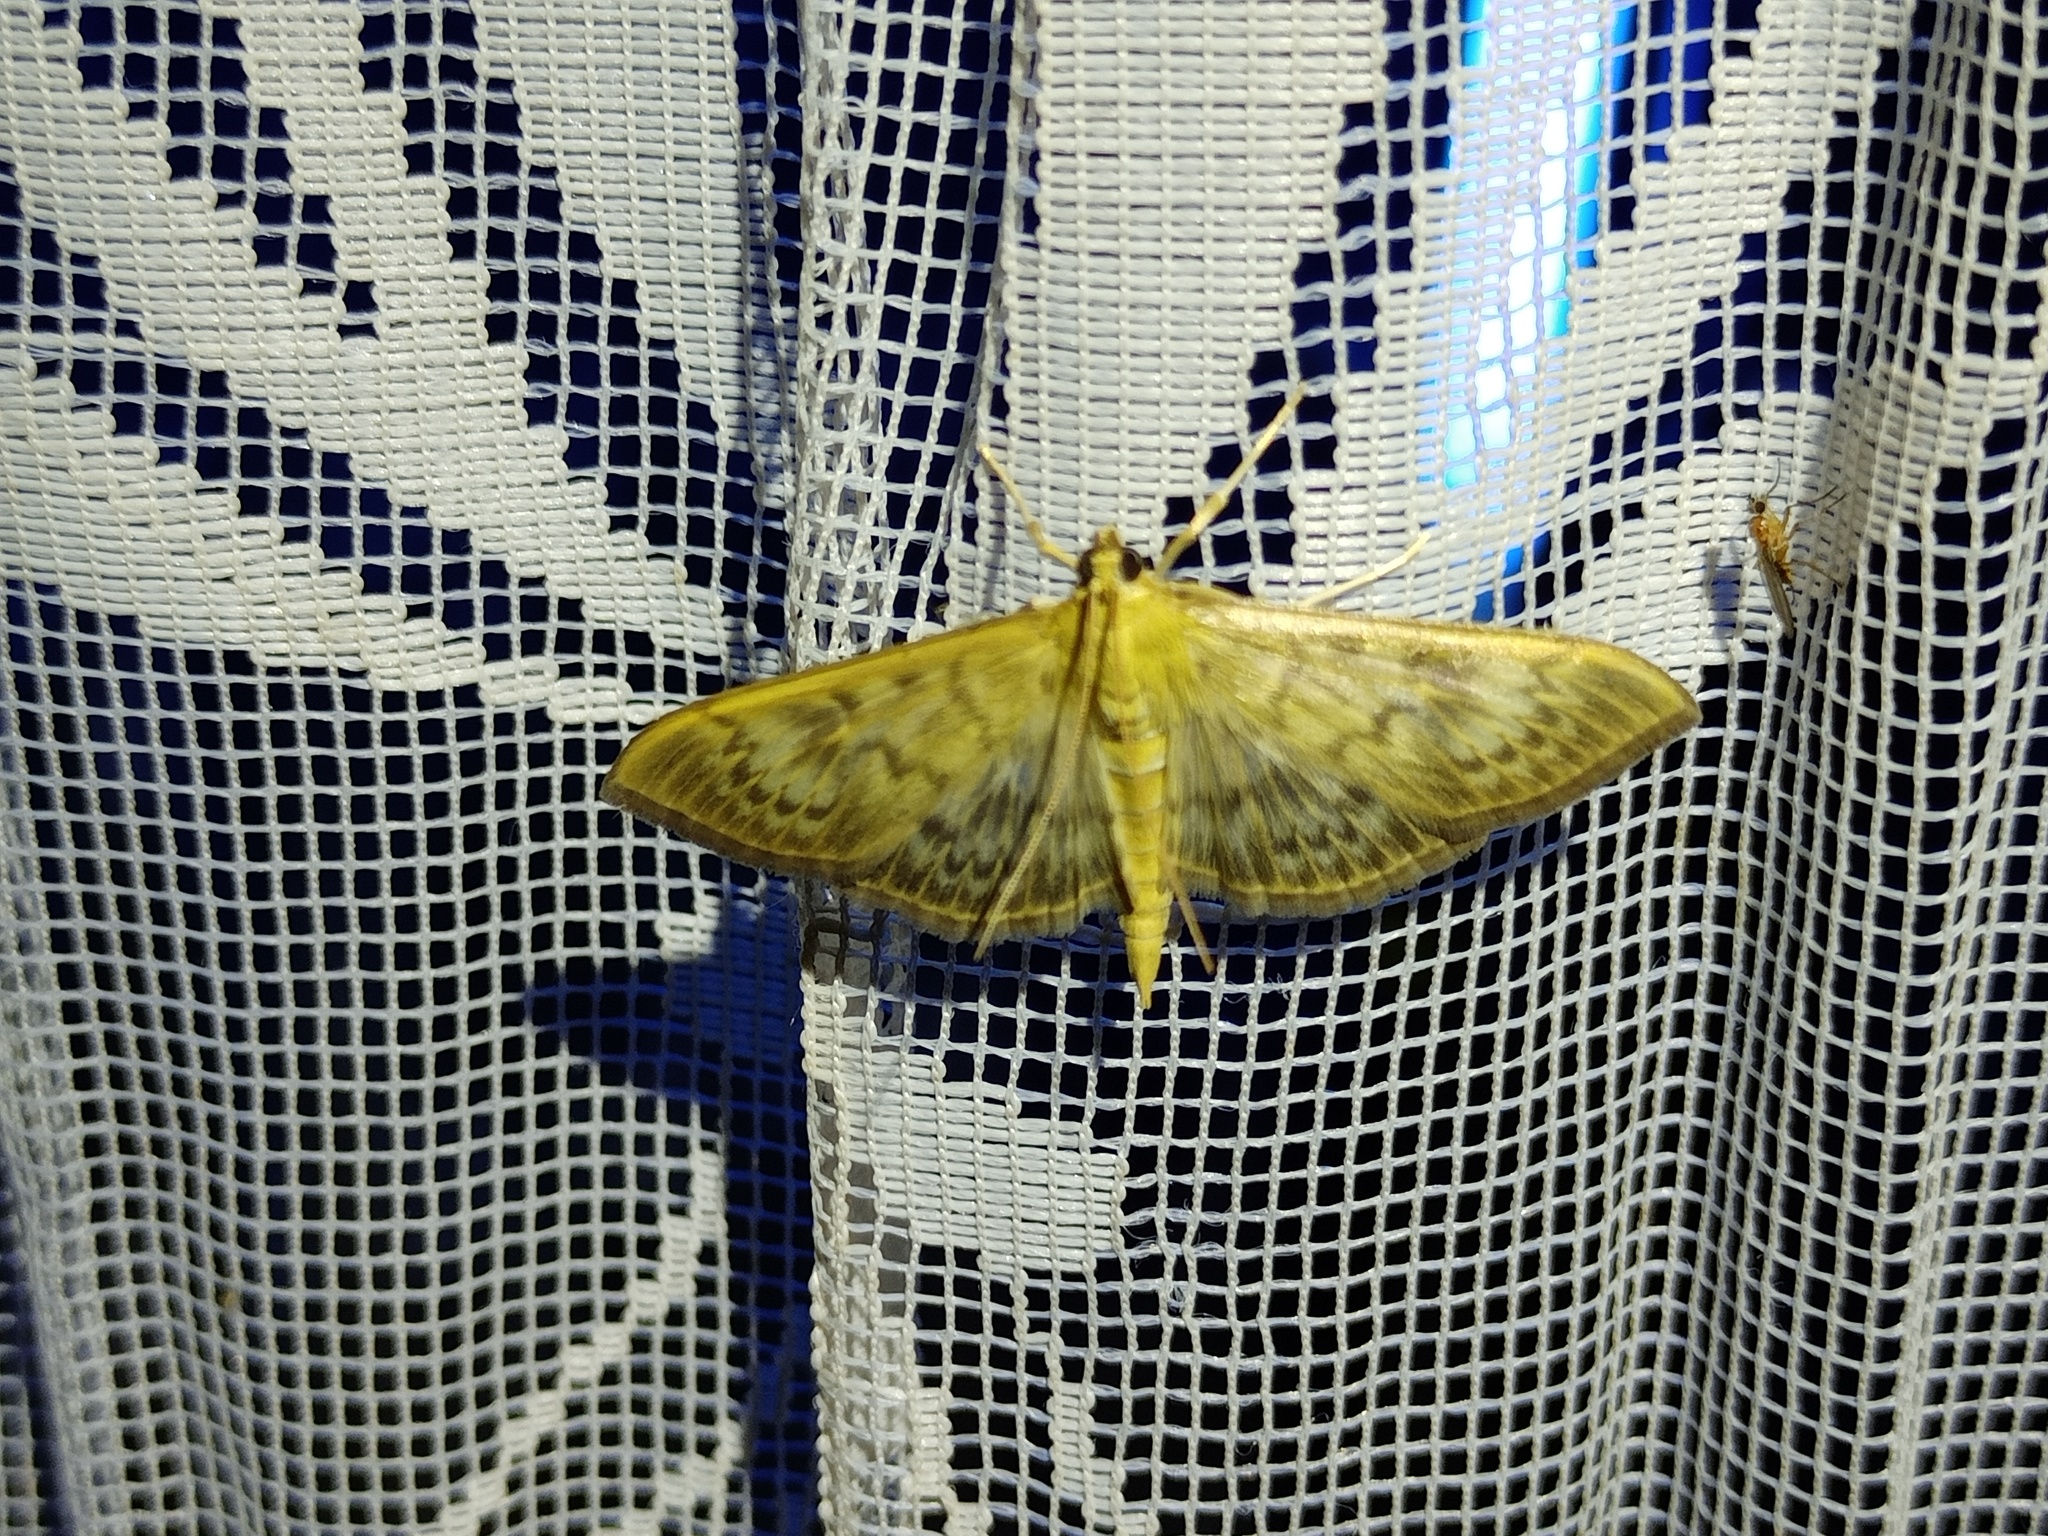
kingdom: Animalia
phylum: Arthropoda
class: Insecta
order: Lepidoptera
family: Crambidae
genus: Patania
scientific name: Patania ruralis
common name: Mother of pearl
